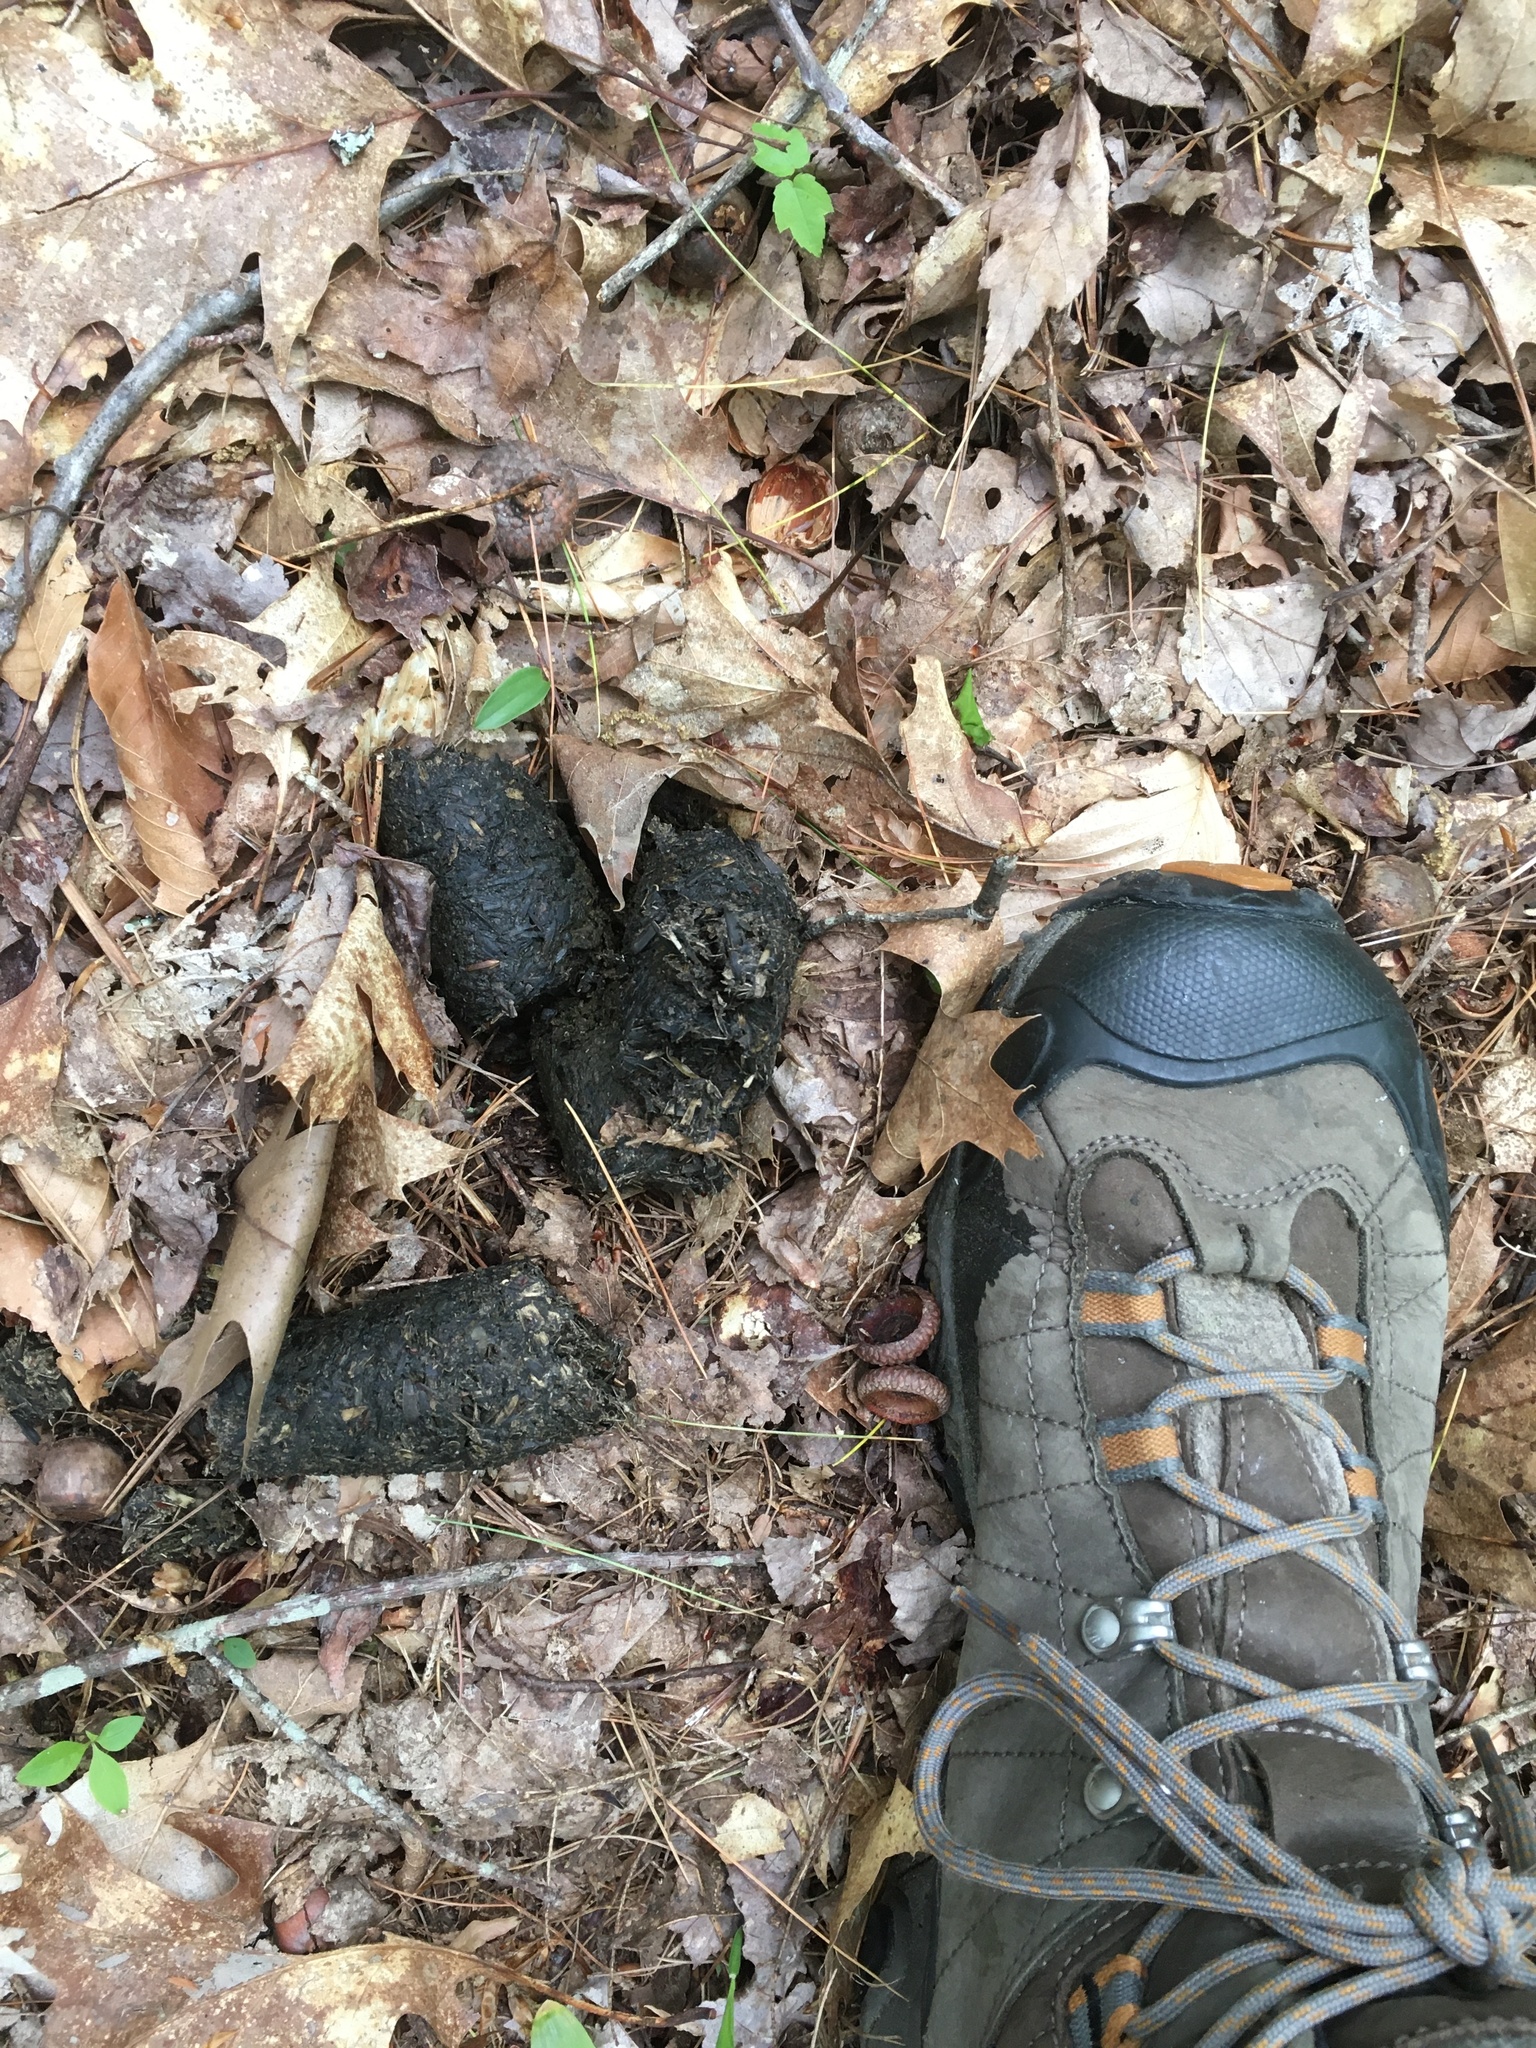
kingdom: Animalia
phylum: Chordata
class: Mammalia
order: Carnivora
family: Ursidae
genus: Ursus
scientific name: Ursus americanus
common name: American black bear
